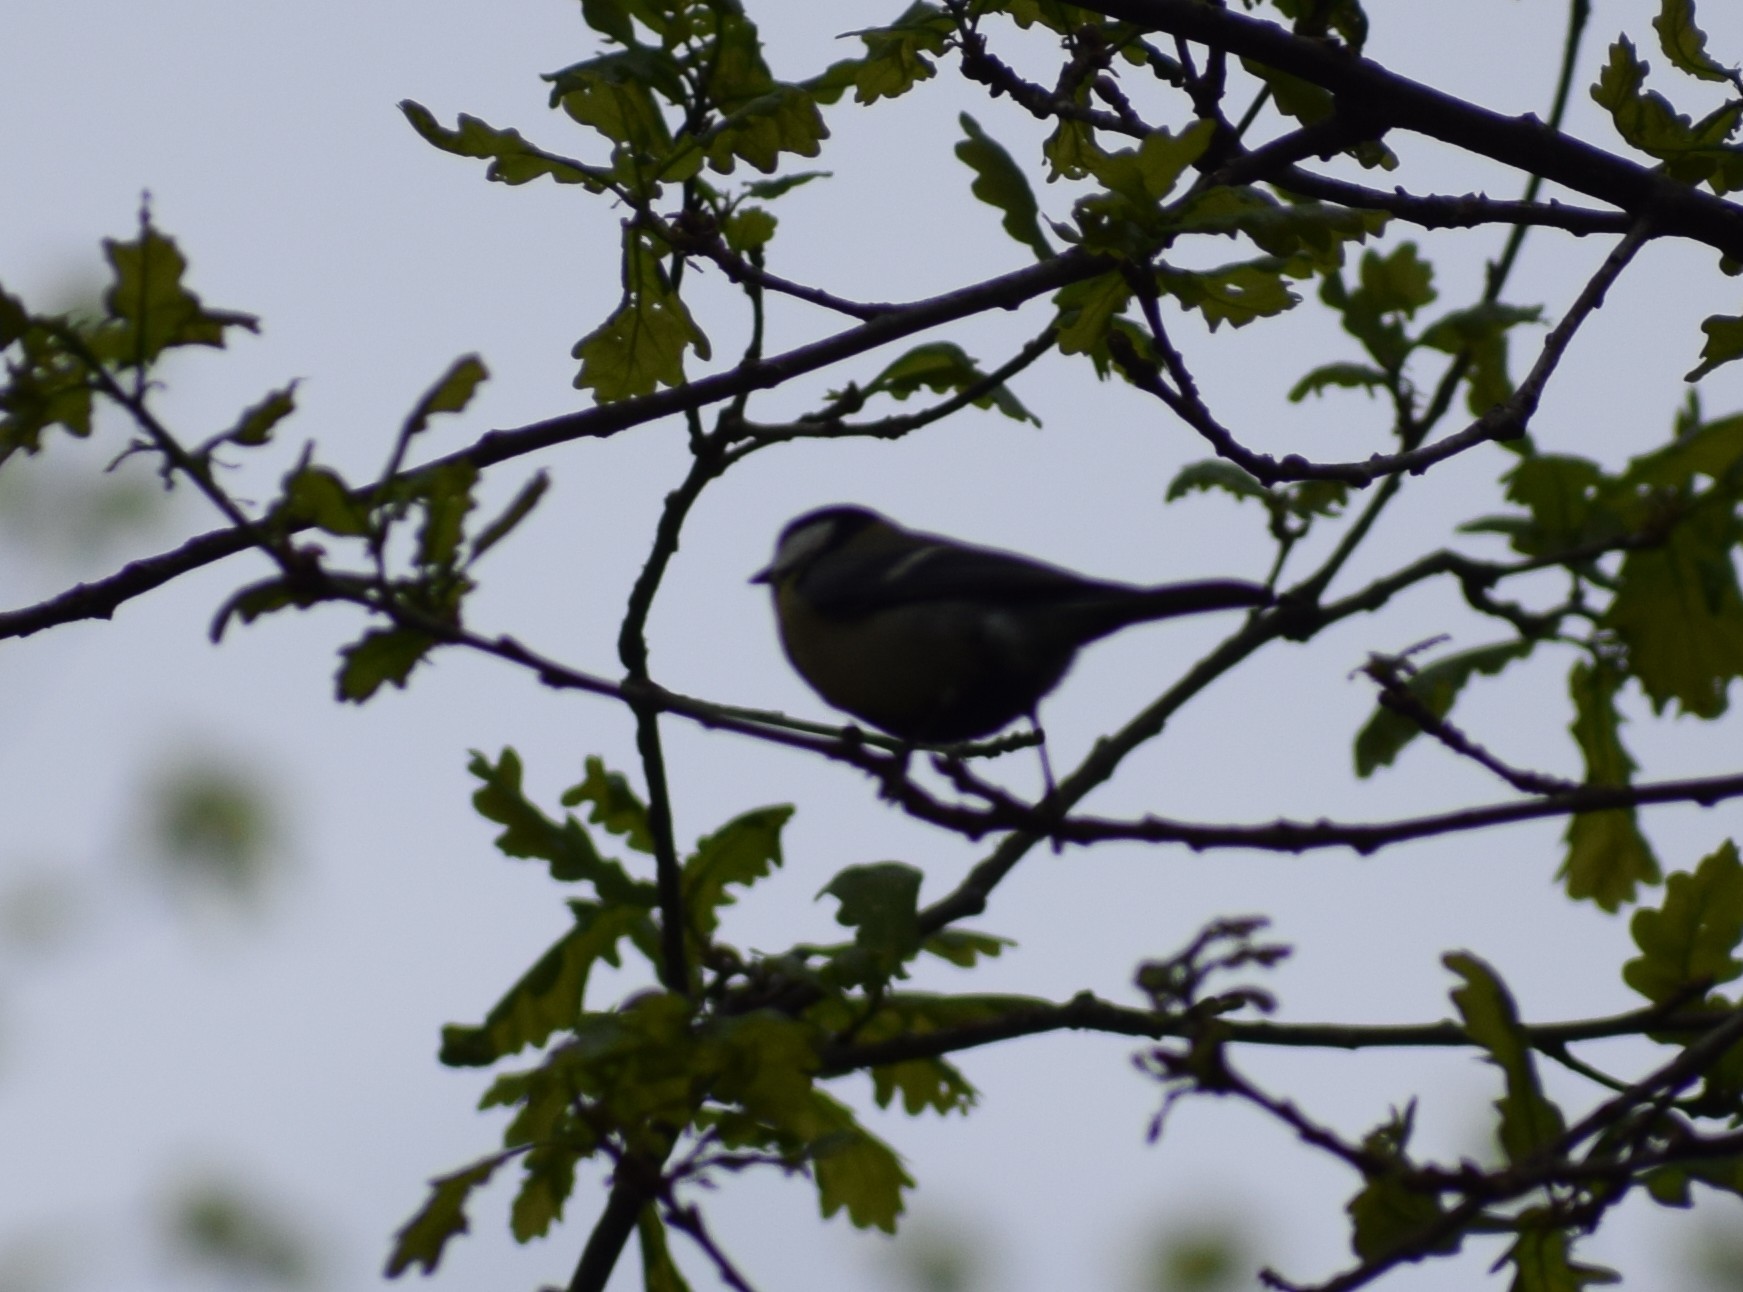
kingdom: Animalia
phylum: Chordata
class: Aves
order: Passeriformes
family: Paridae
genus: Parus
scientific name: Parus major
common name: Great tit
